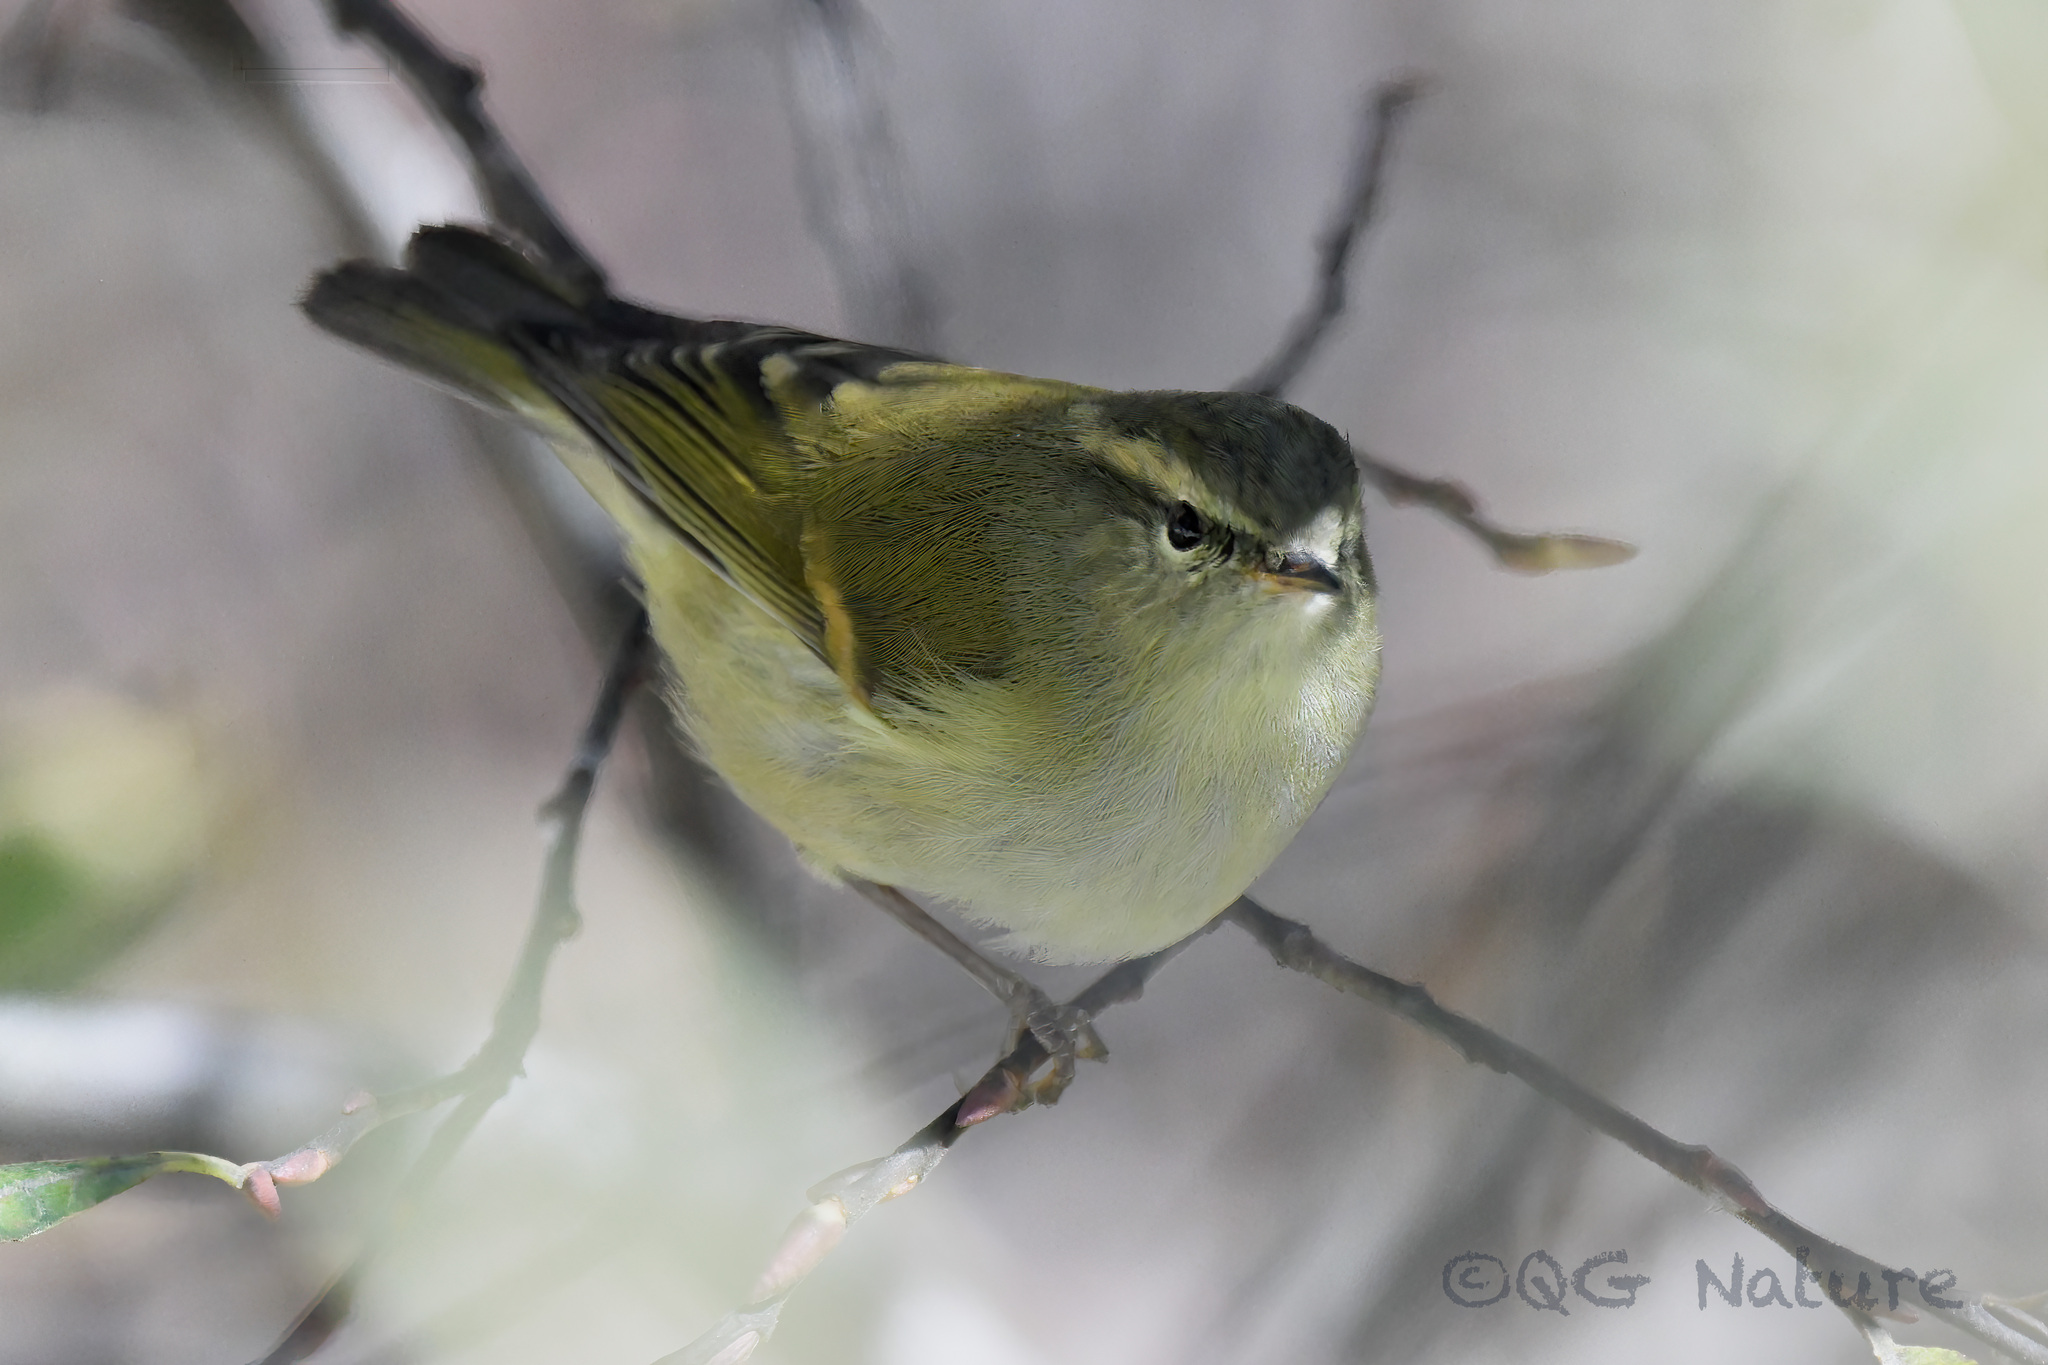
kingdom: Animalia
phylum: Chordata
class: Aves
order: Passeriformes
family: Phylloscopidae
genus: Phylloscopus
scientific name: Phylloscopus pulcher
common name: Buff-barred warbler
